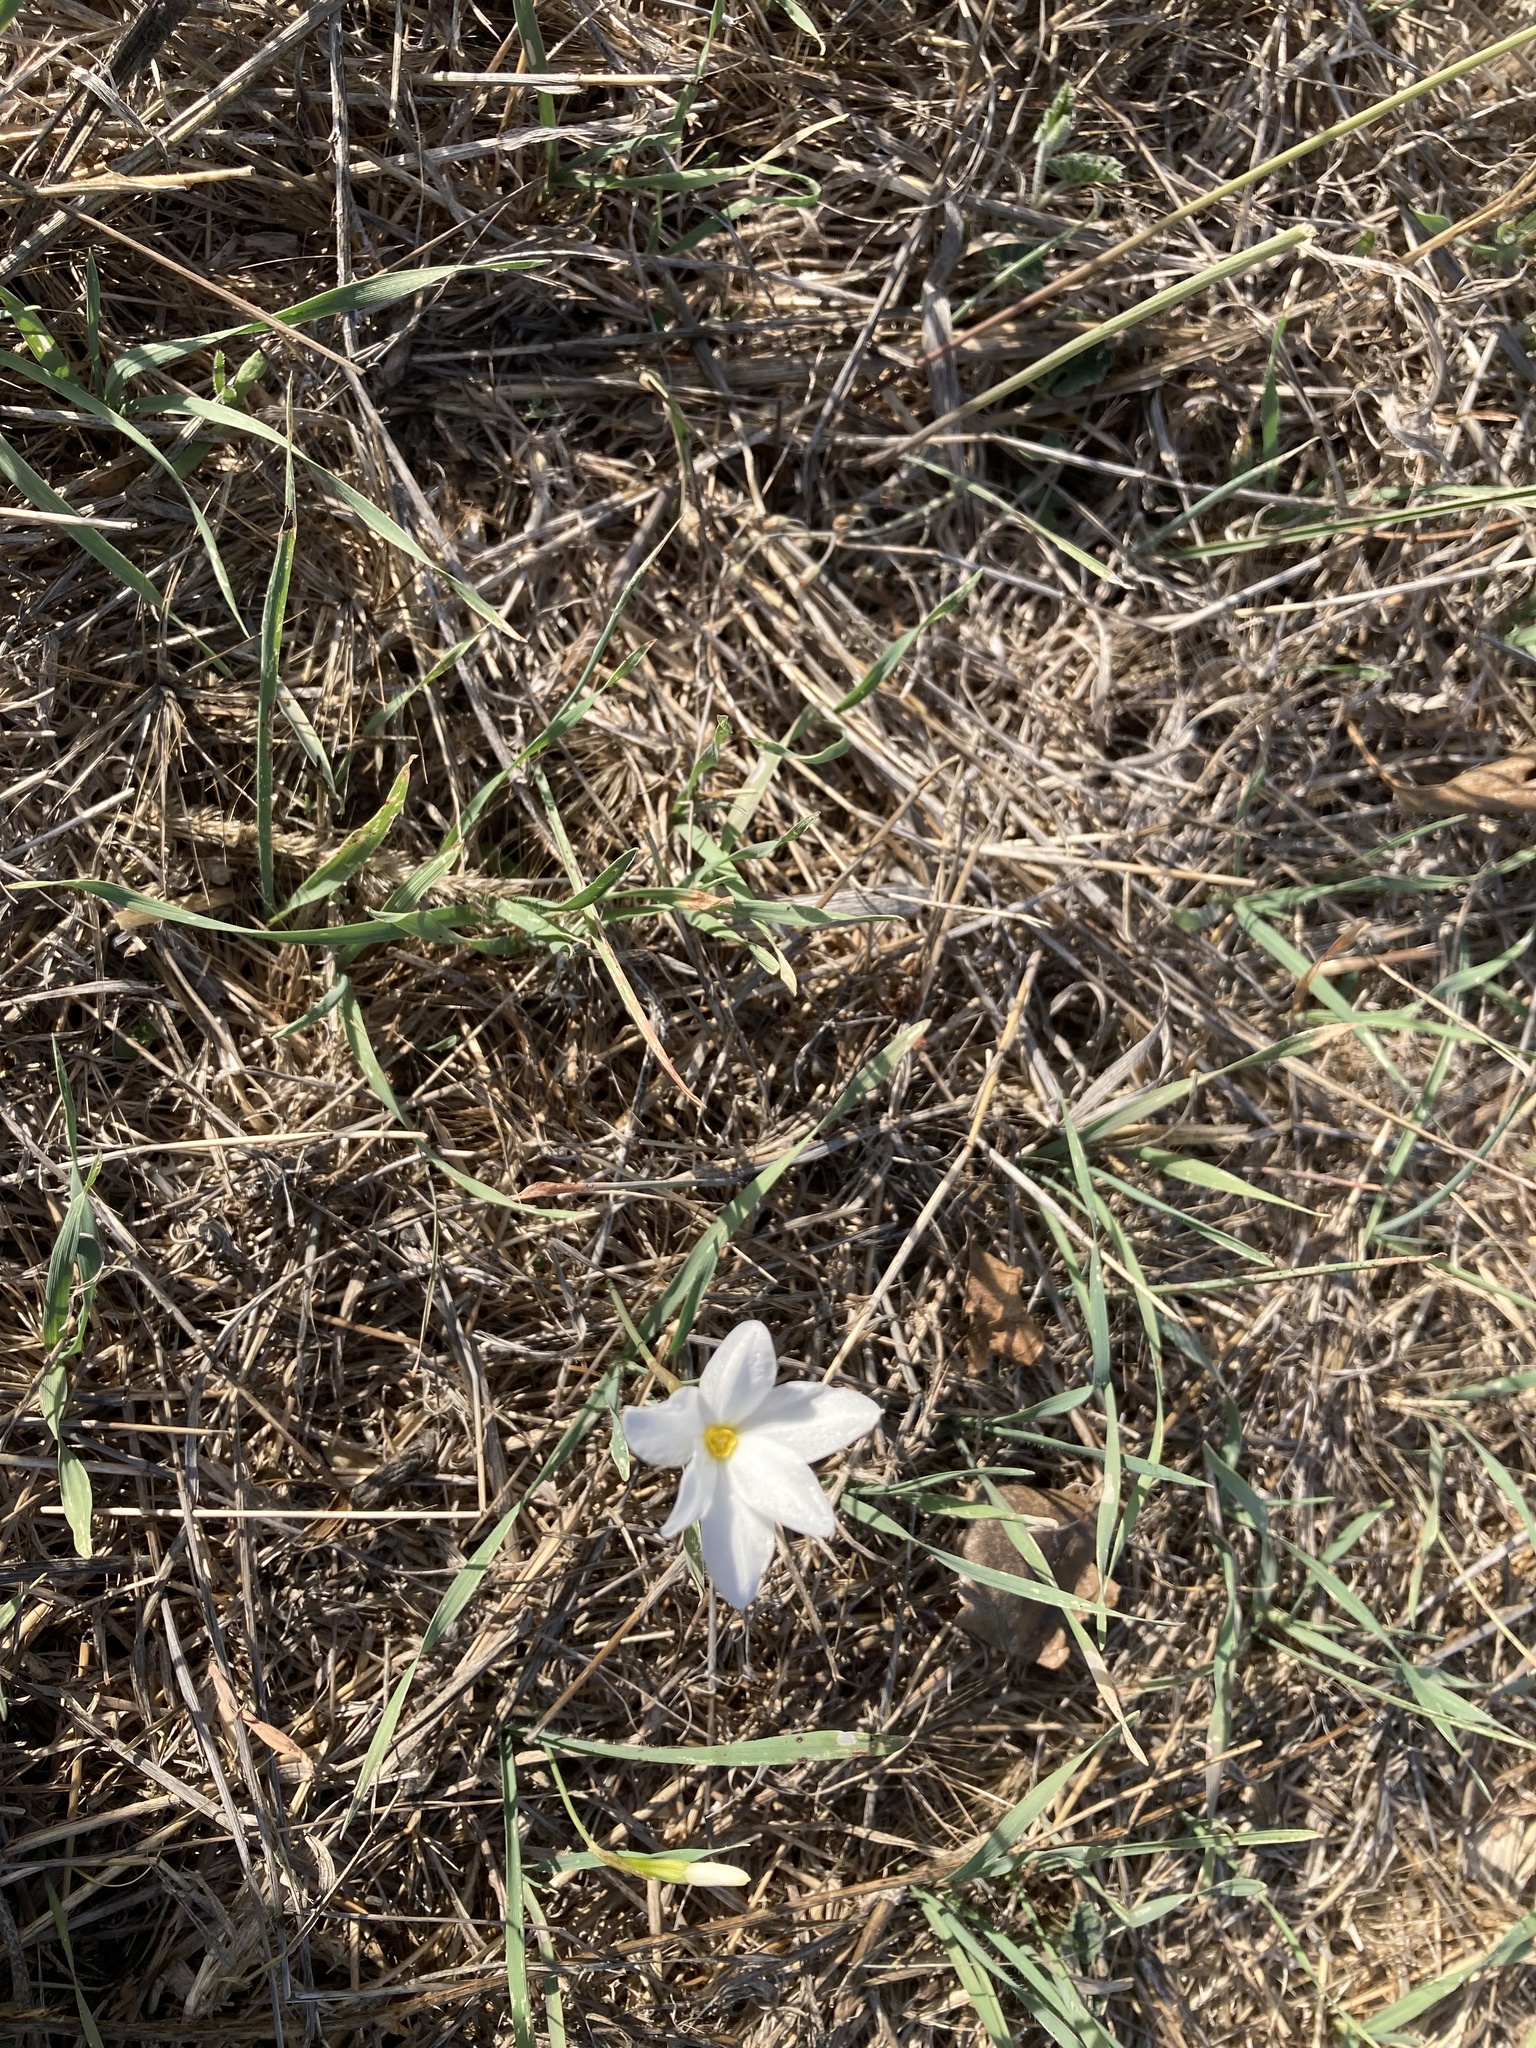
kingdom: Plantae
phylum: Tracheophyta
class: Liliopsida
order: Asparagales
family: Amaryllidaceae
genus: Narcissus
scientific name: Narcissus serotinus
